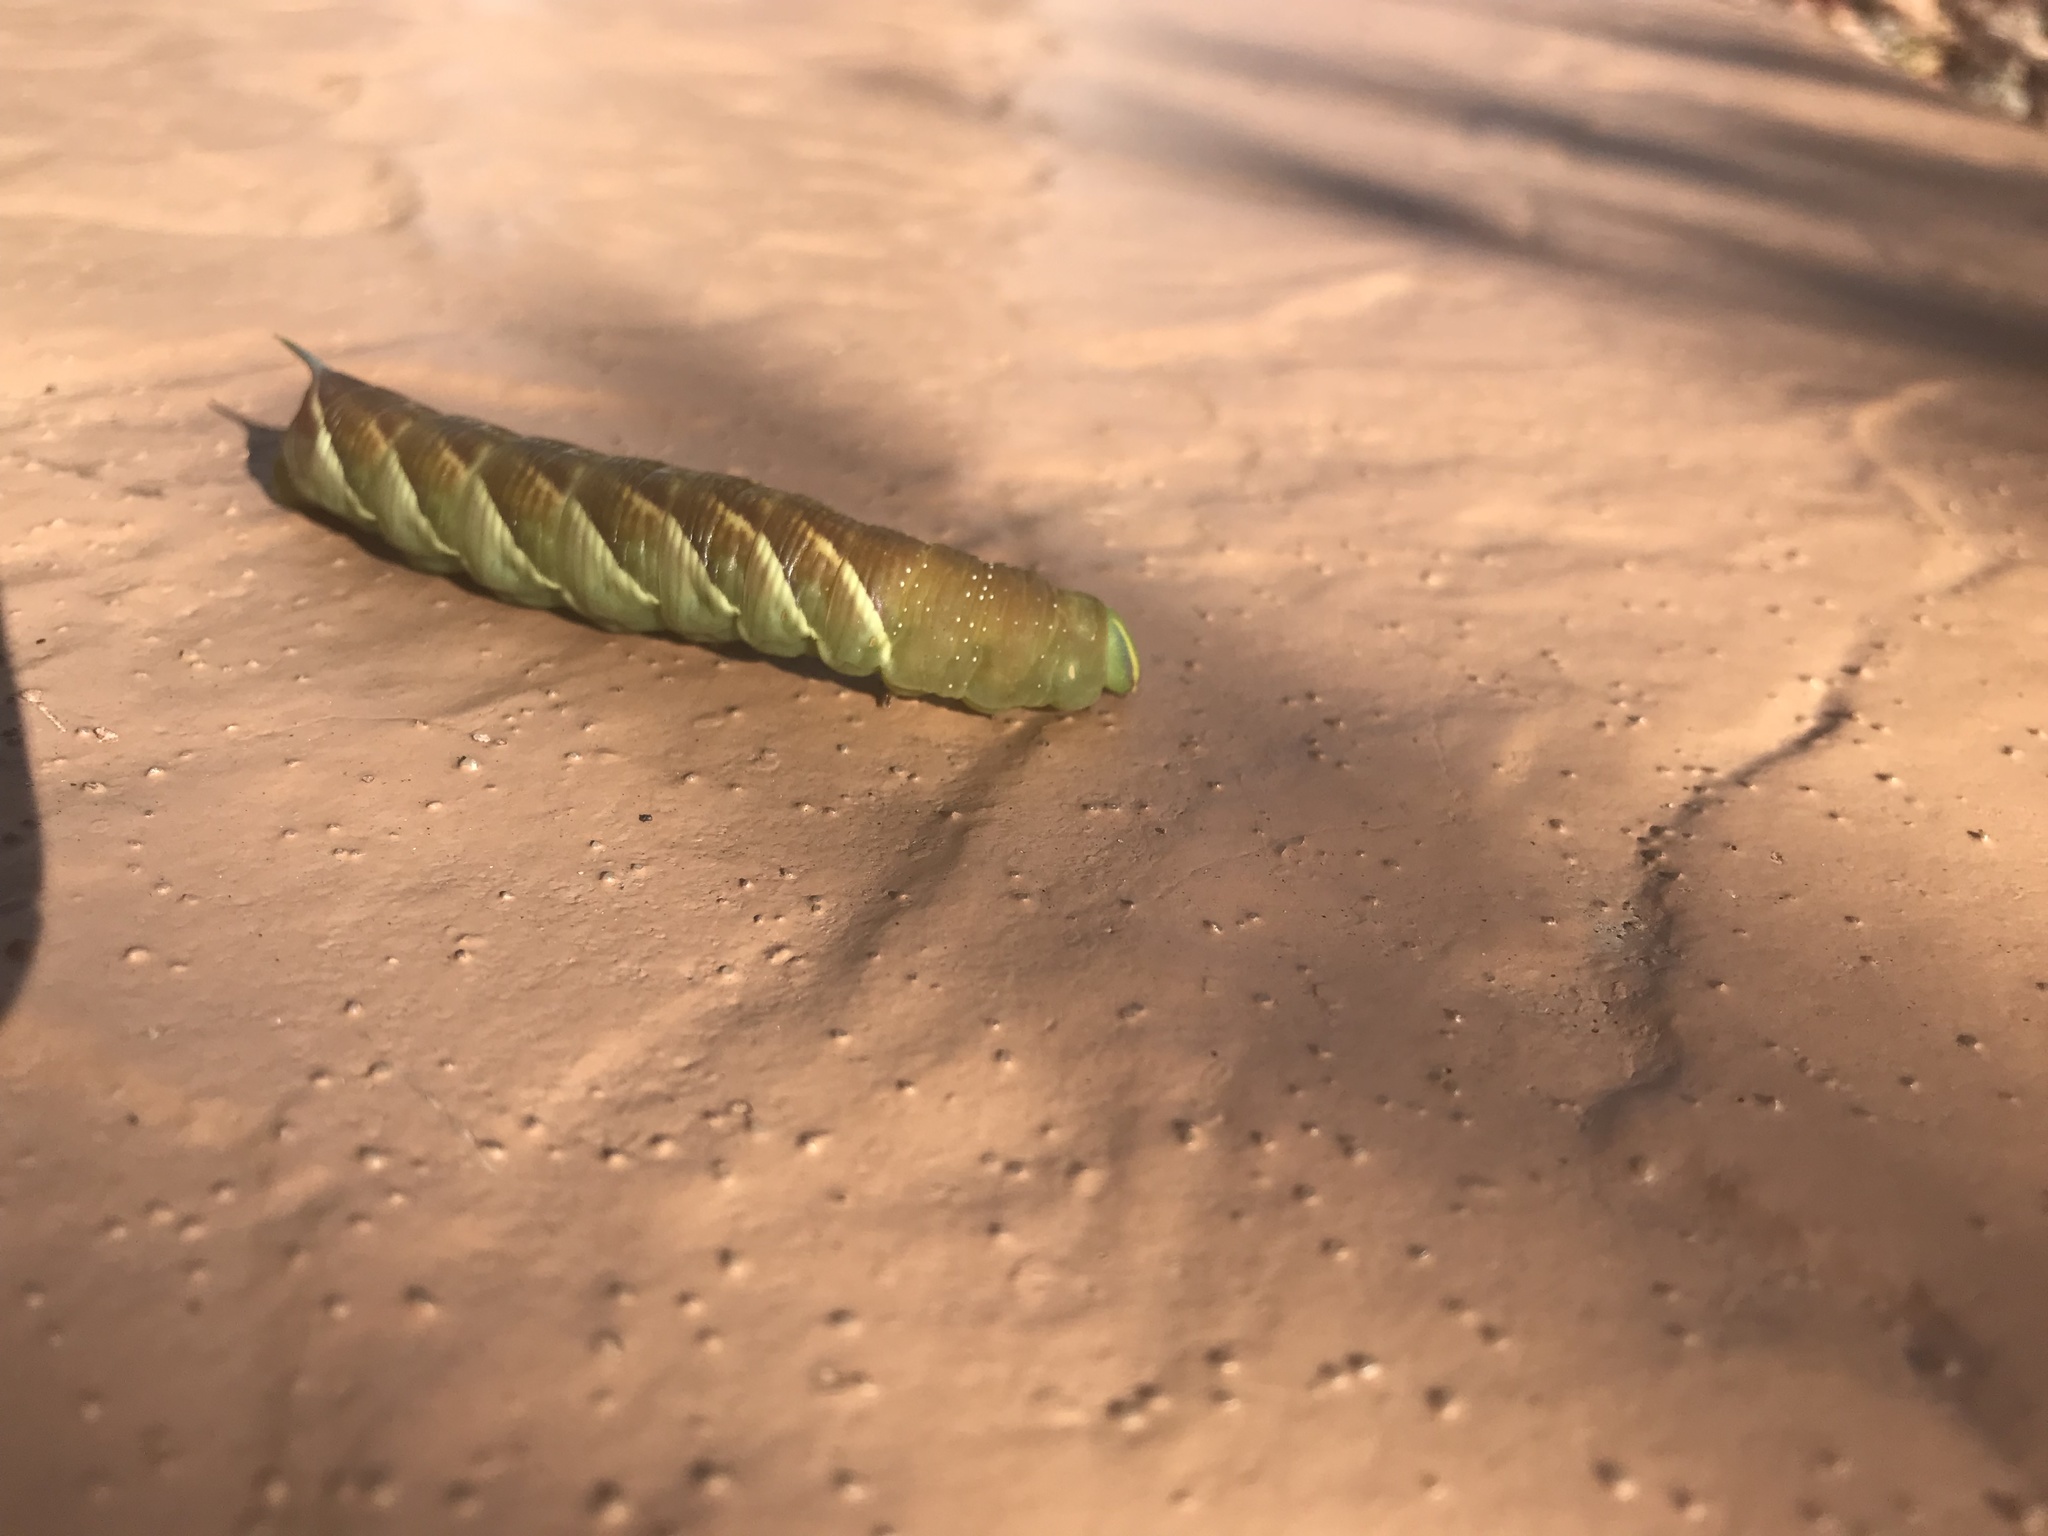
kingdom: Animalia
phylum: Arthropoda
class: Insecta
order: Lepidoptera
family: Sphingidae
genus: Sphinx
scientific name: Sphinx chersis
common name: Great ash sphinx
